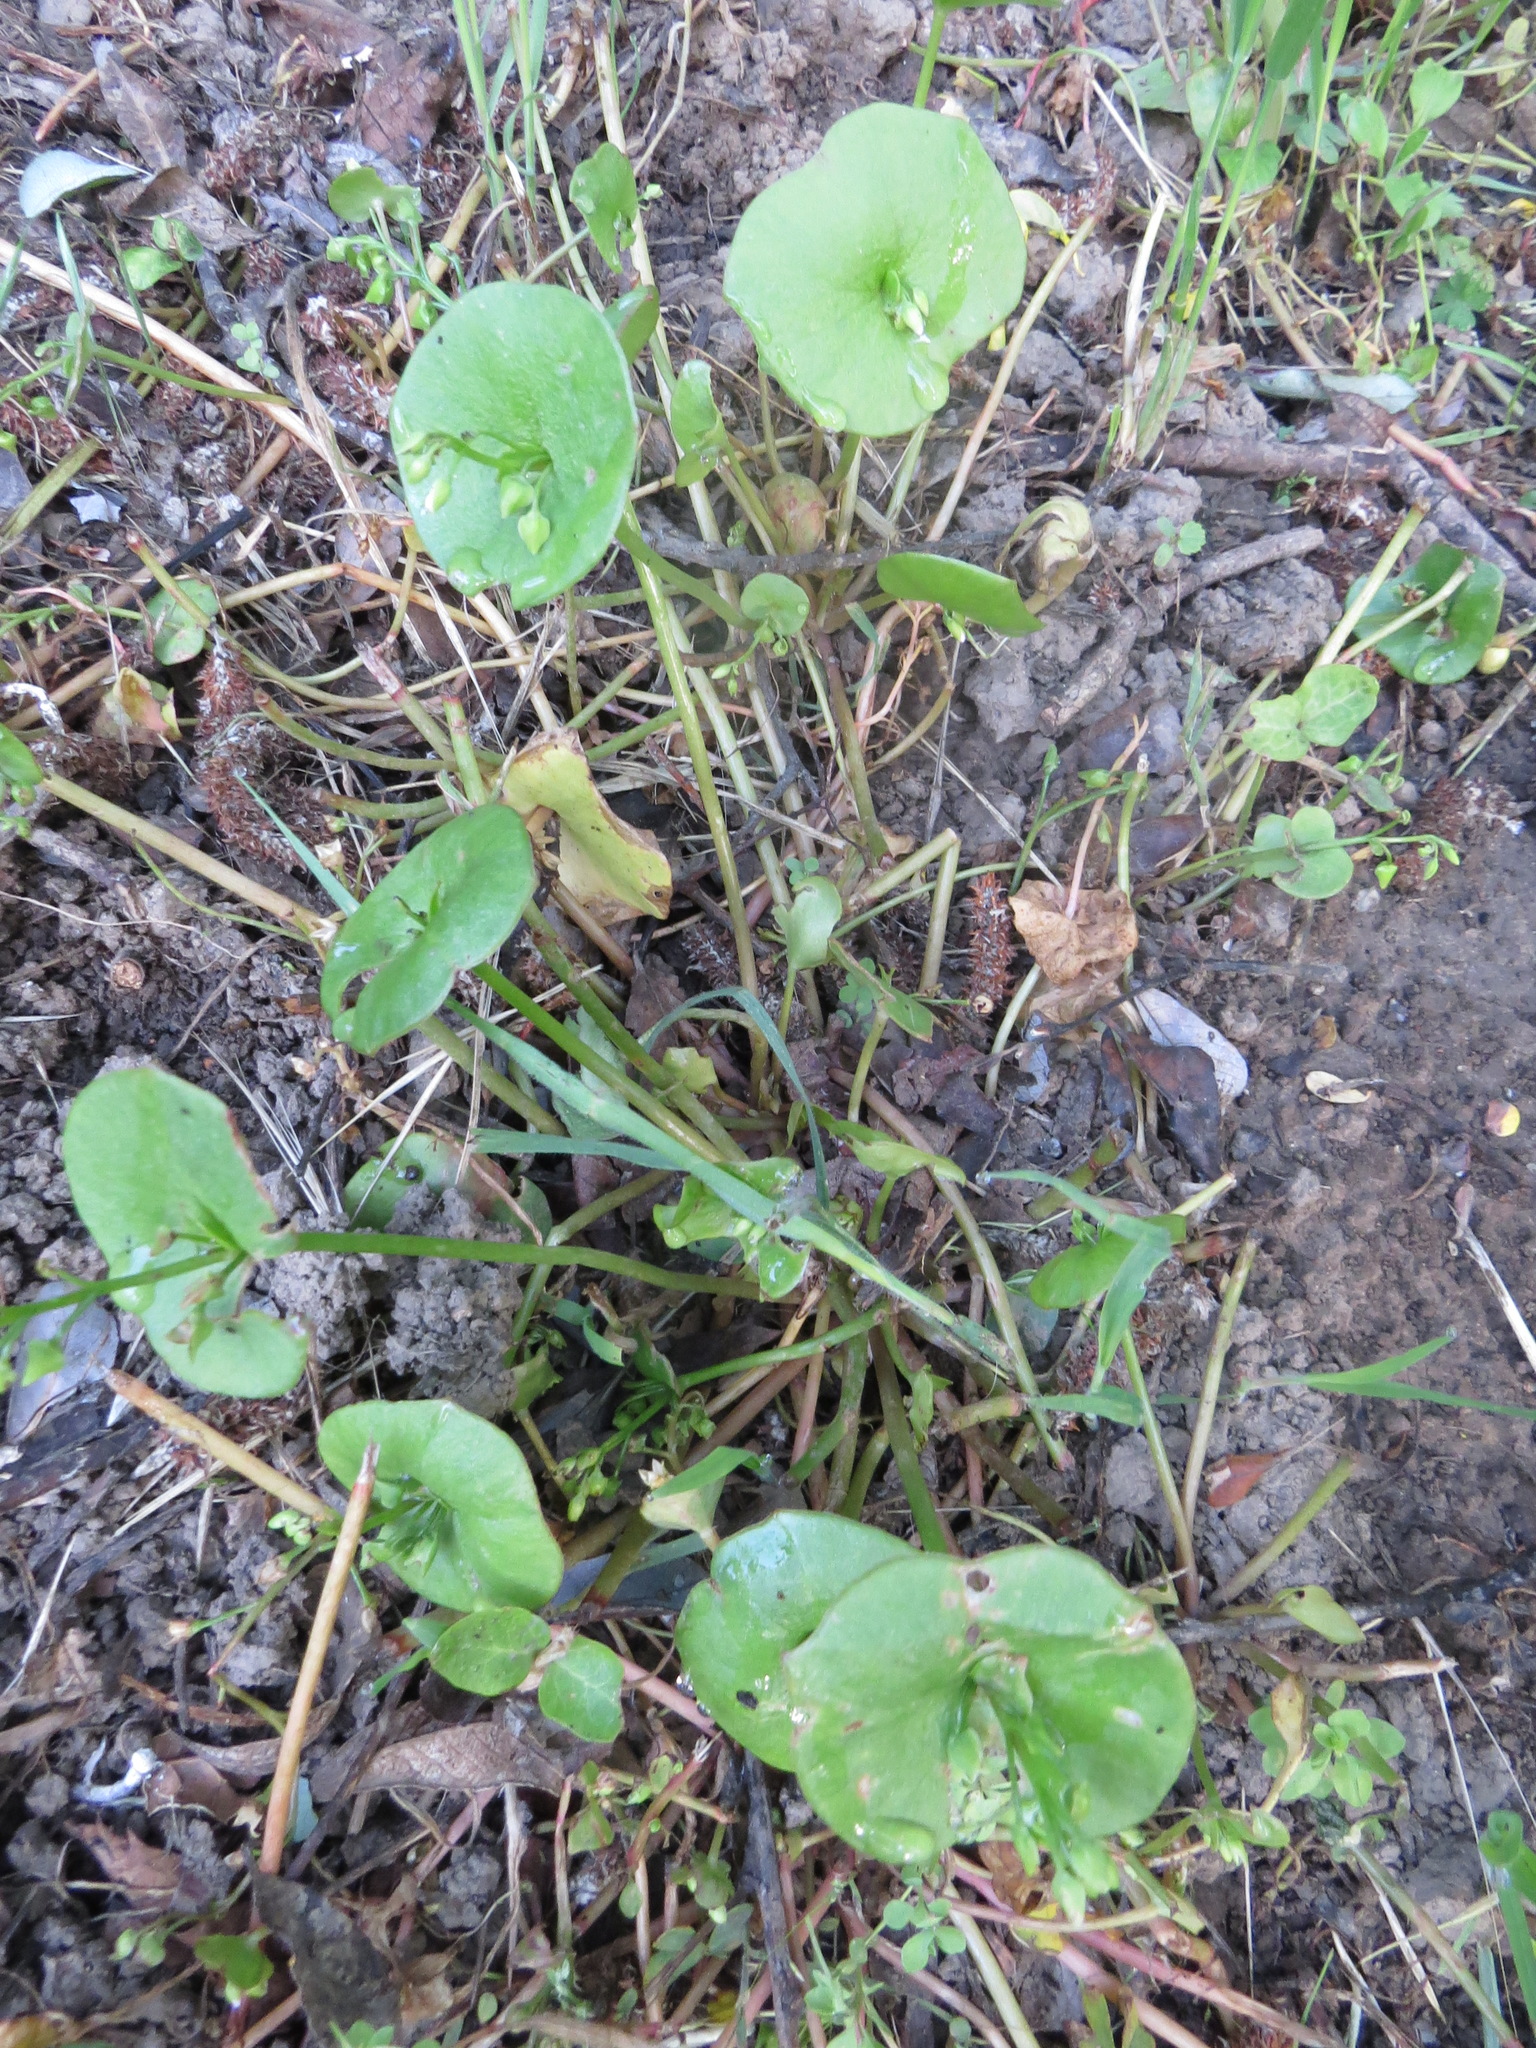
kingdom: Plantae
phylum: Tracheophyta
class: Magnoliopsida
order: Caryophyllales
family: Montiaceae
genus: Claytonia
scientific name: Claytonia perfoliata
